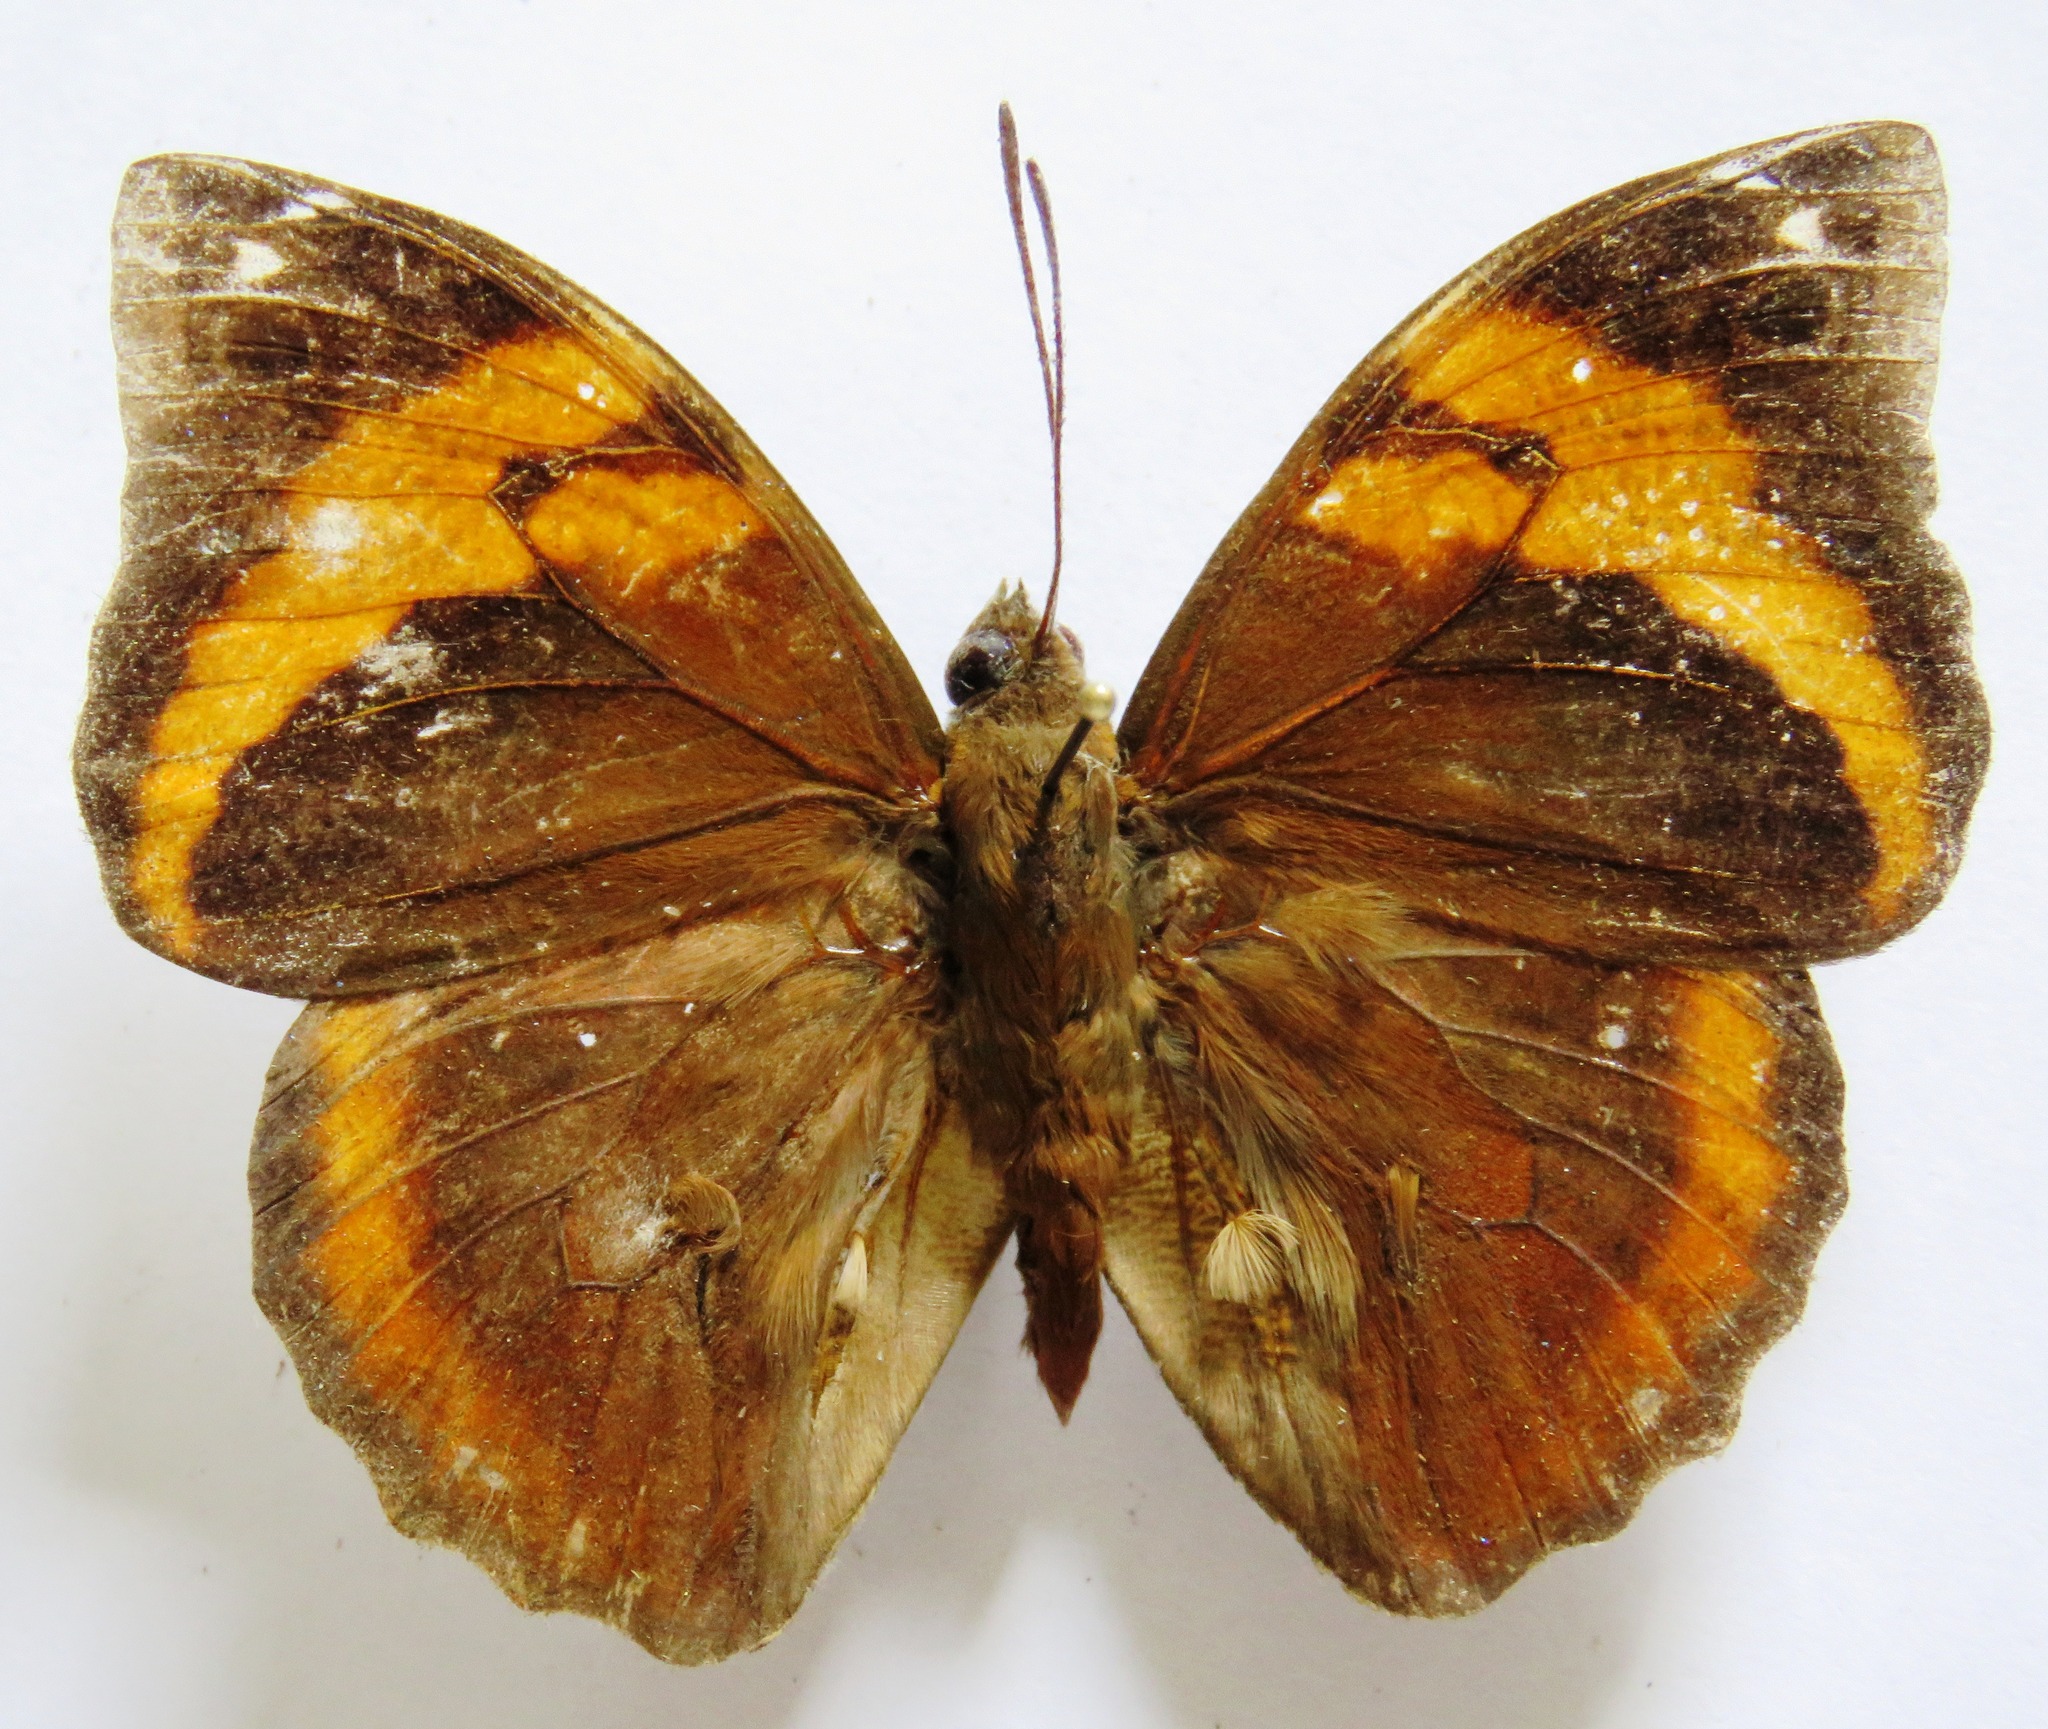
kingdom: Animalia
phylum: Arthropoda
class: Insecta
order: Lepidoptera
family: Nymphalidae
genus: Opsiphanes
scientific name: Opsiphanes fabricii
